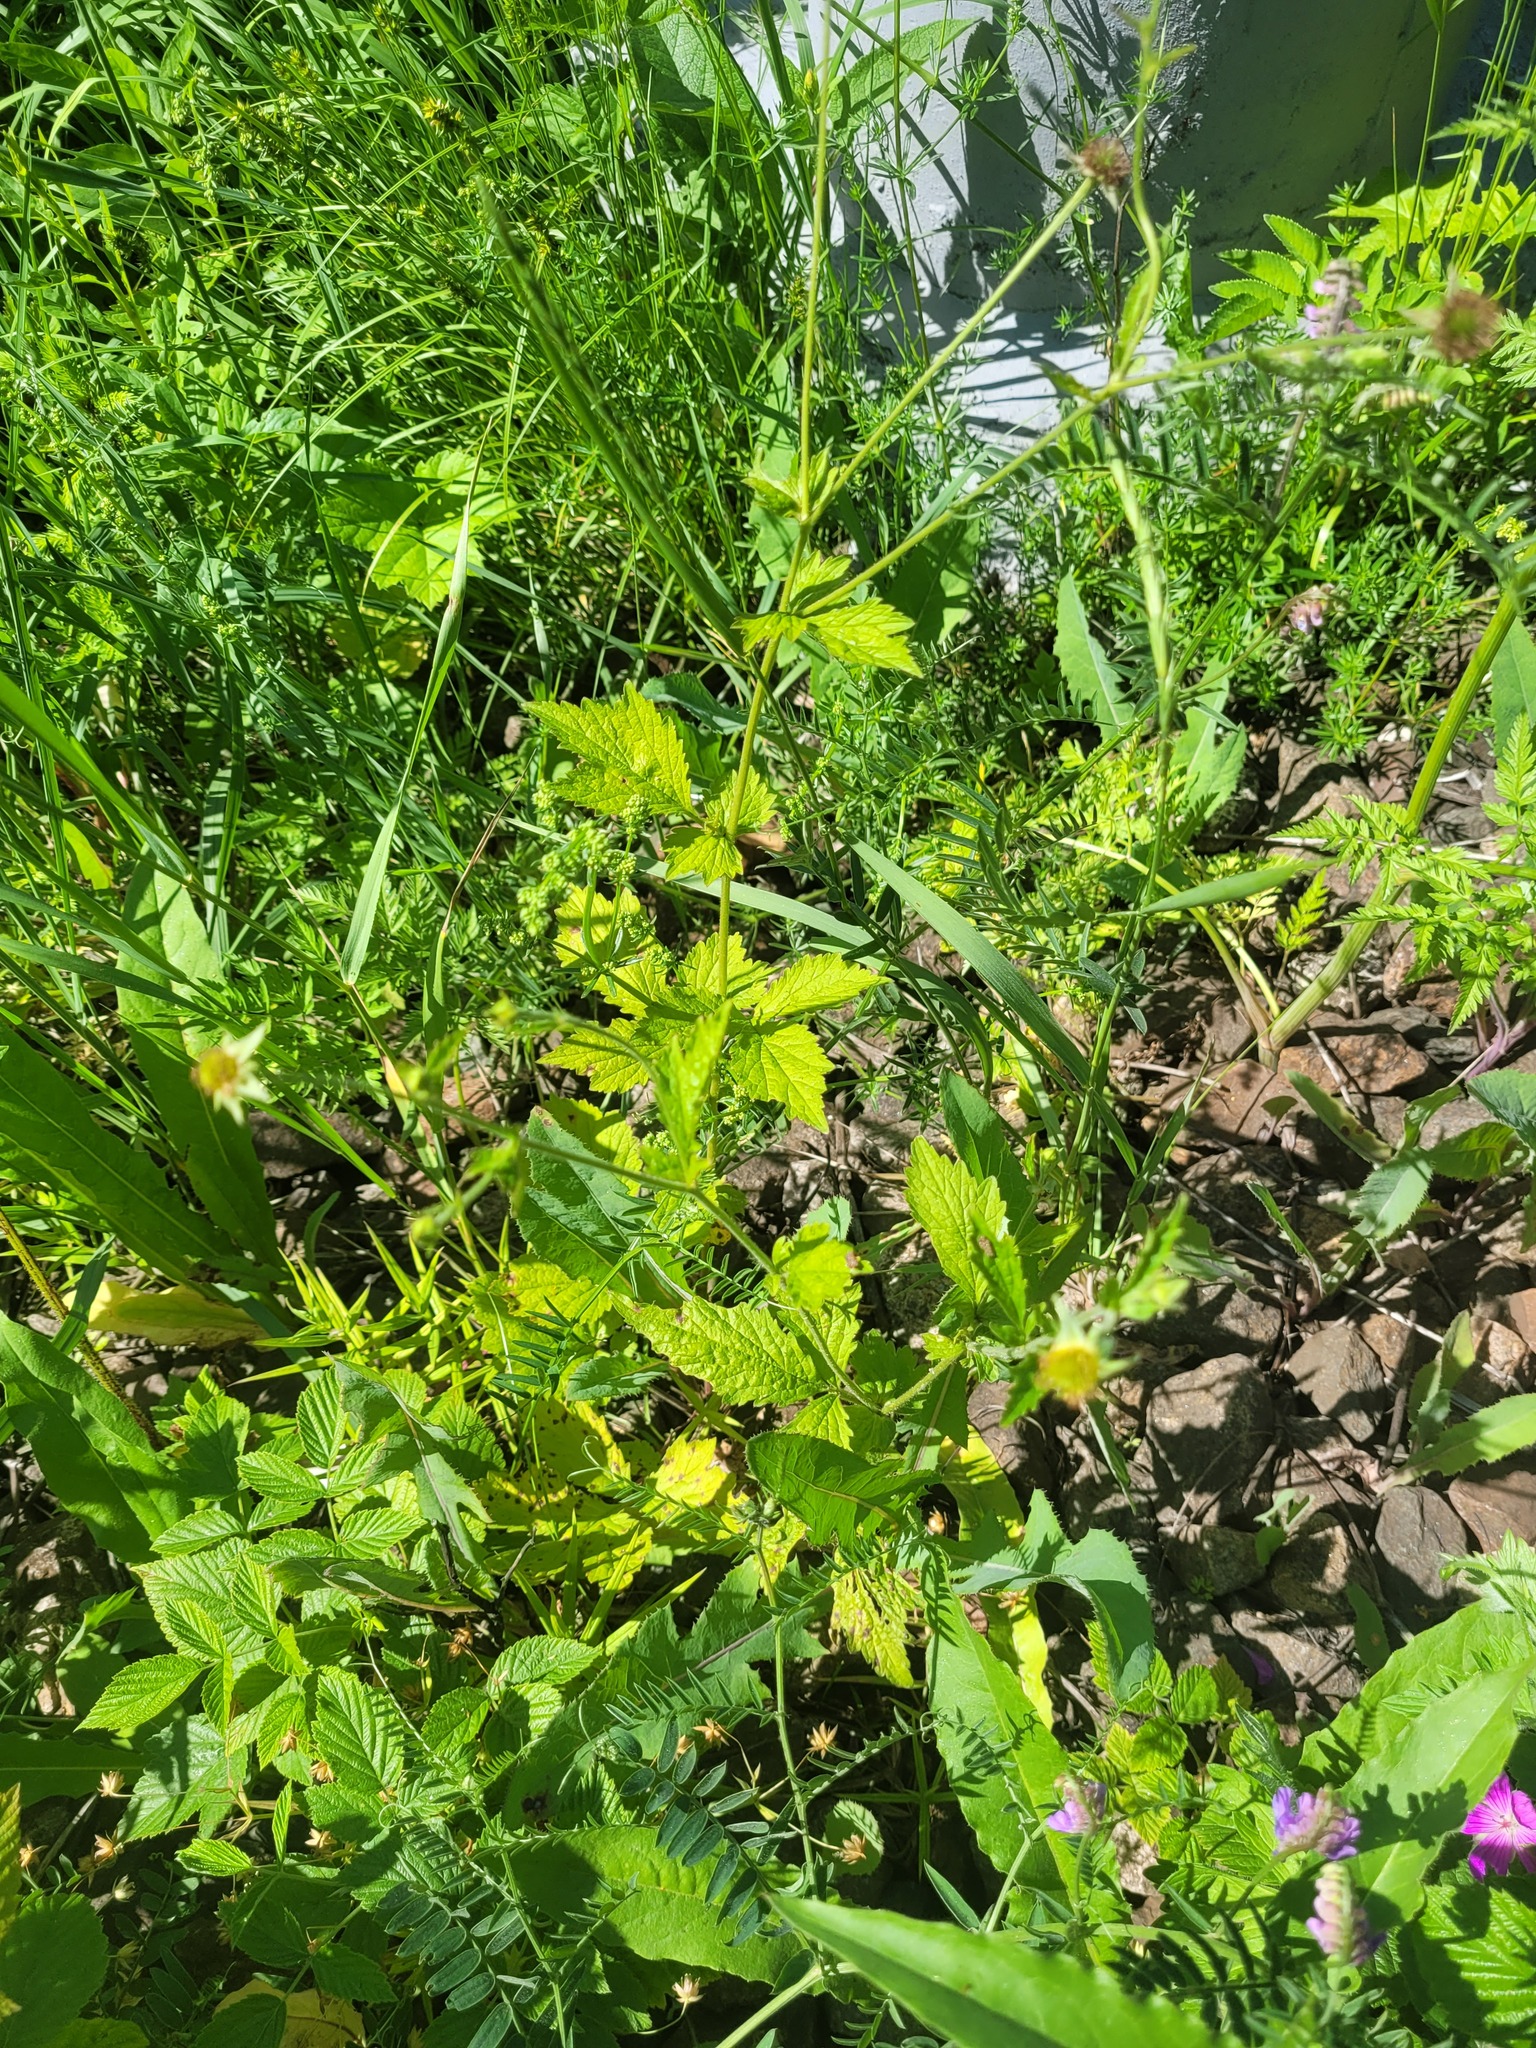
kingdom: Plantae
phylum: Tracheophyta
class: Magnoliopsida
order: Rosales
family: Rosaceae
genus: Geum
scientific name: Geum urbanum
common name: Wood avens
